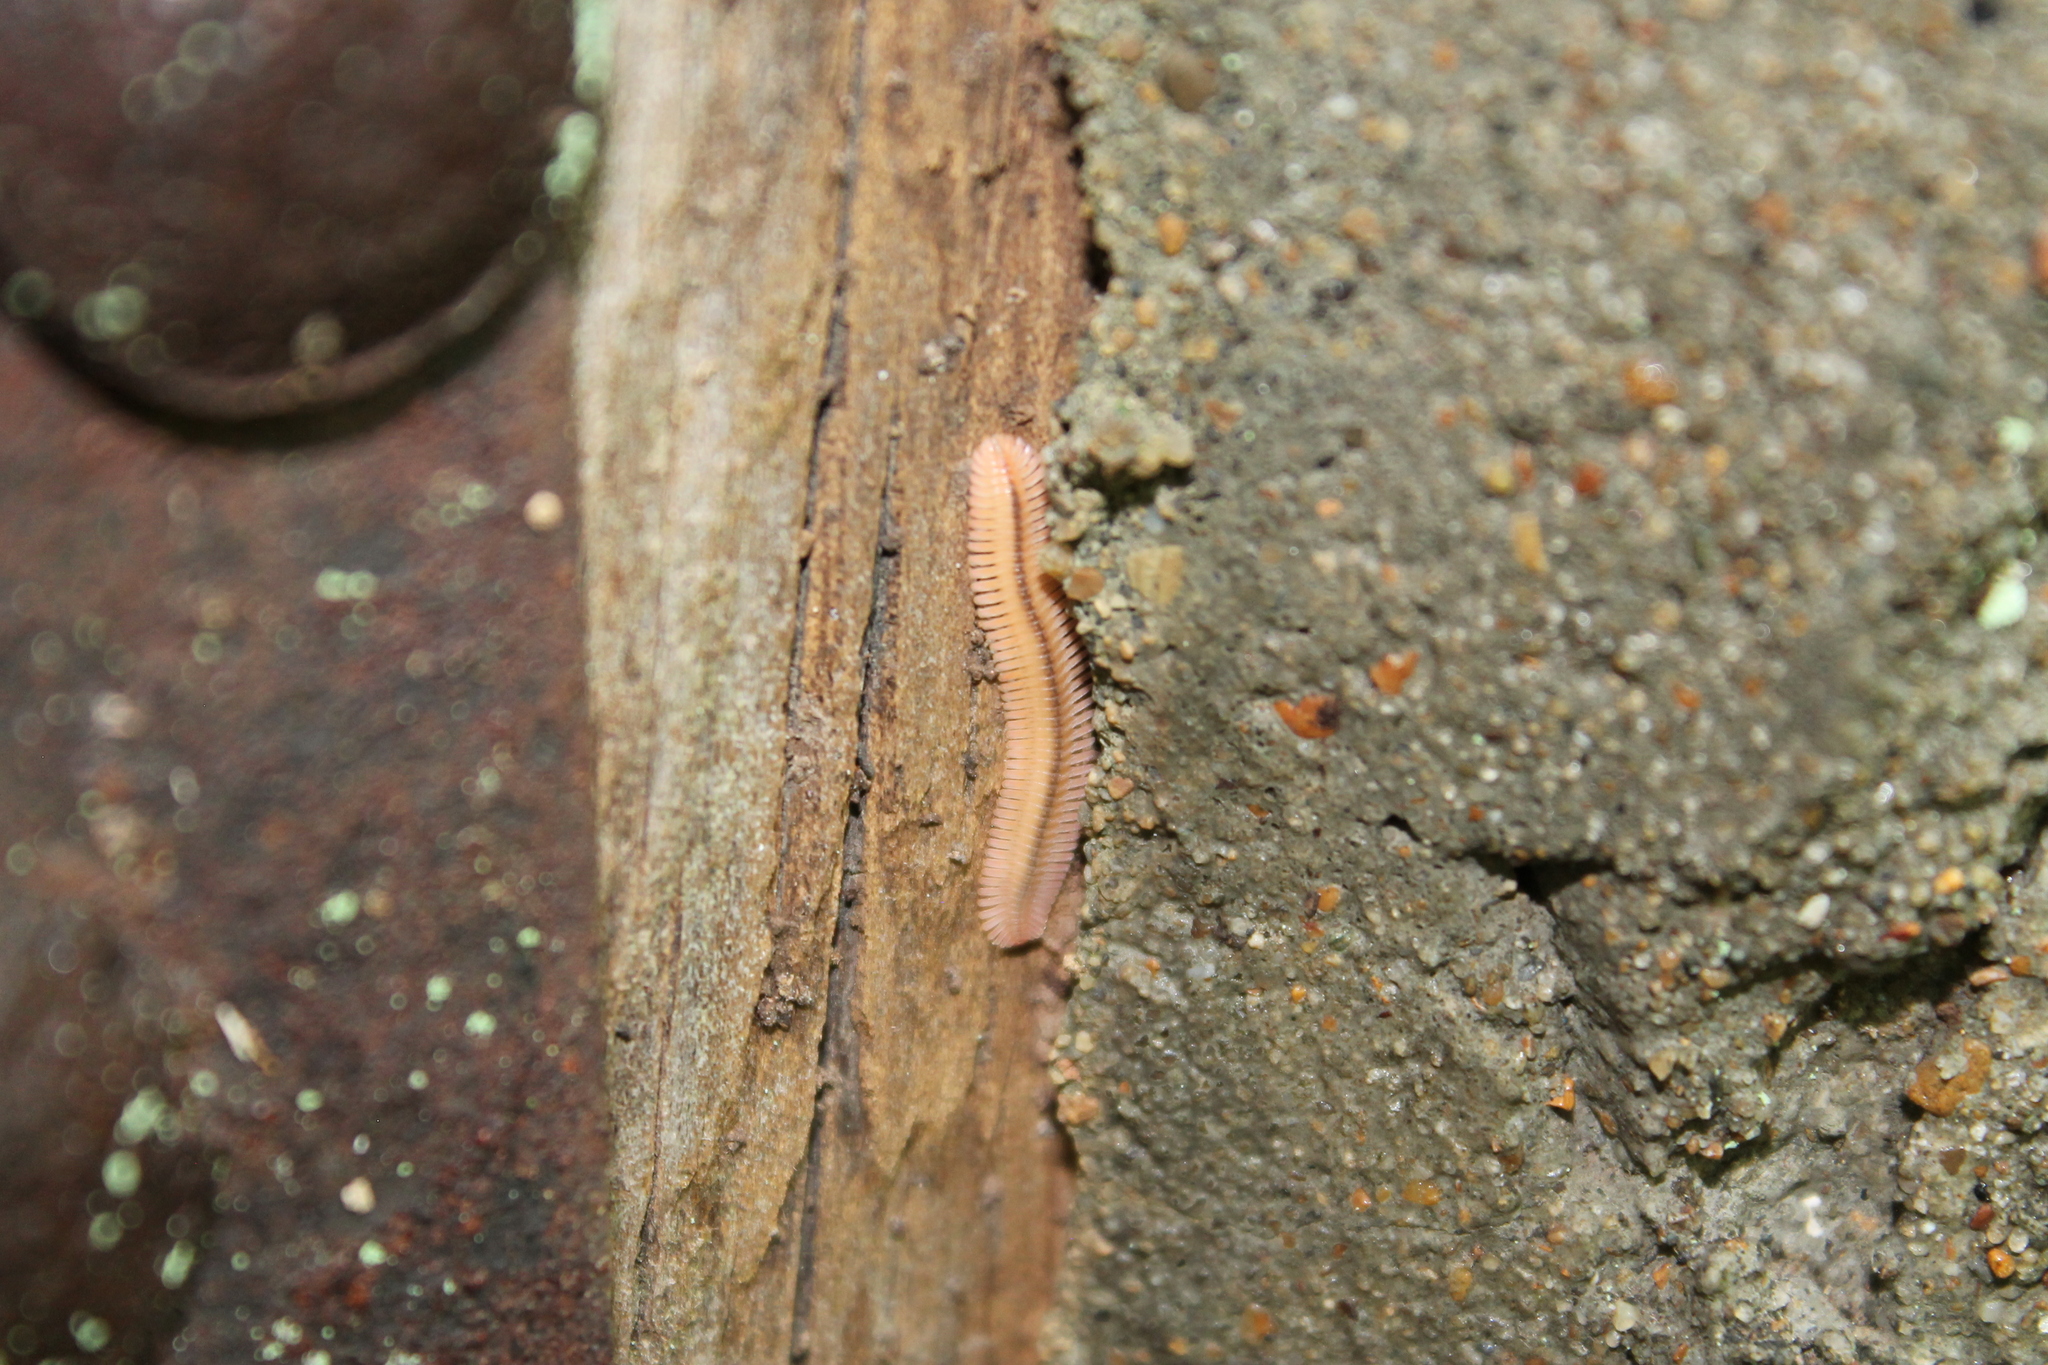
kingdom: Animalia
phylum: Arthropoda
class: Diplopoda
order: Platydesmida
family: Andrognathidae
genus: Brachycybe
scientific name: Brachycybe lecontii
